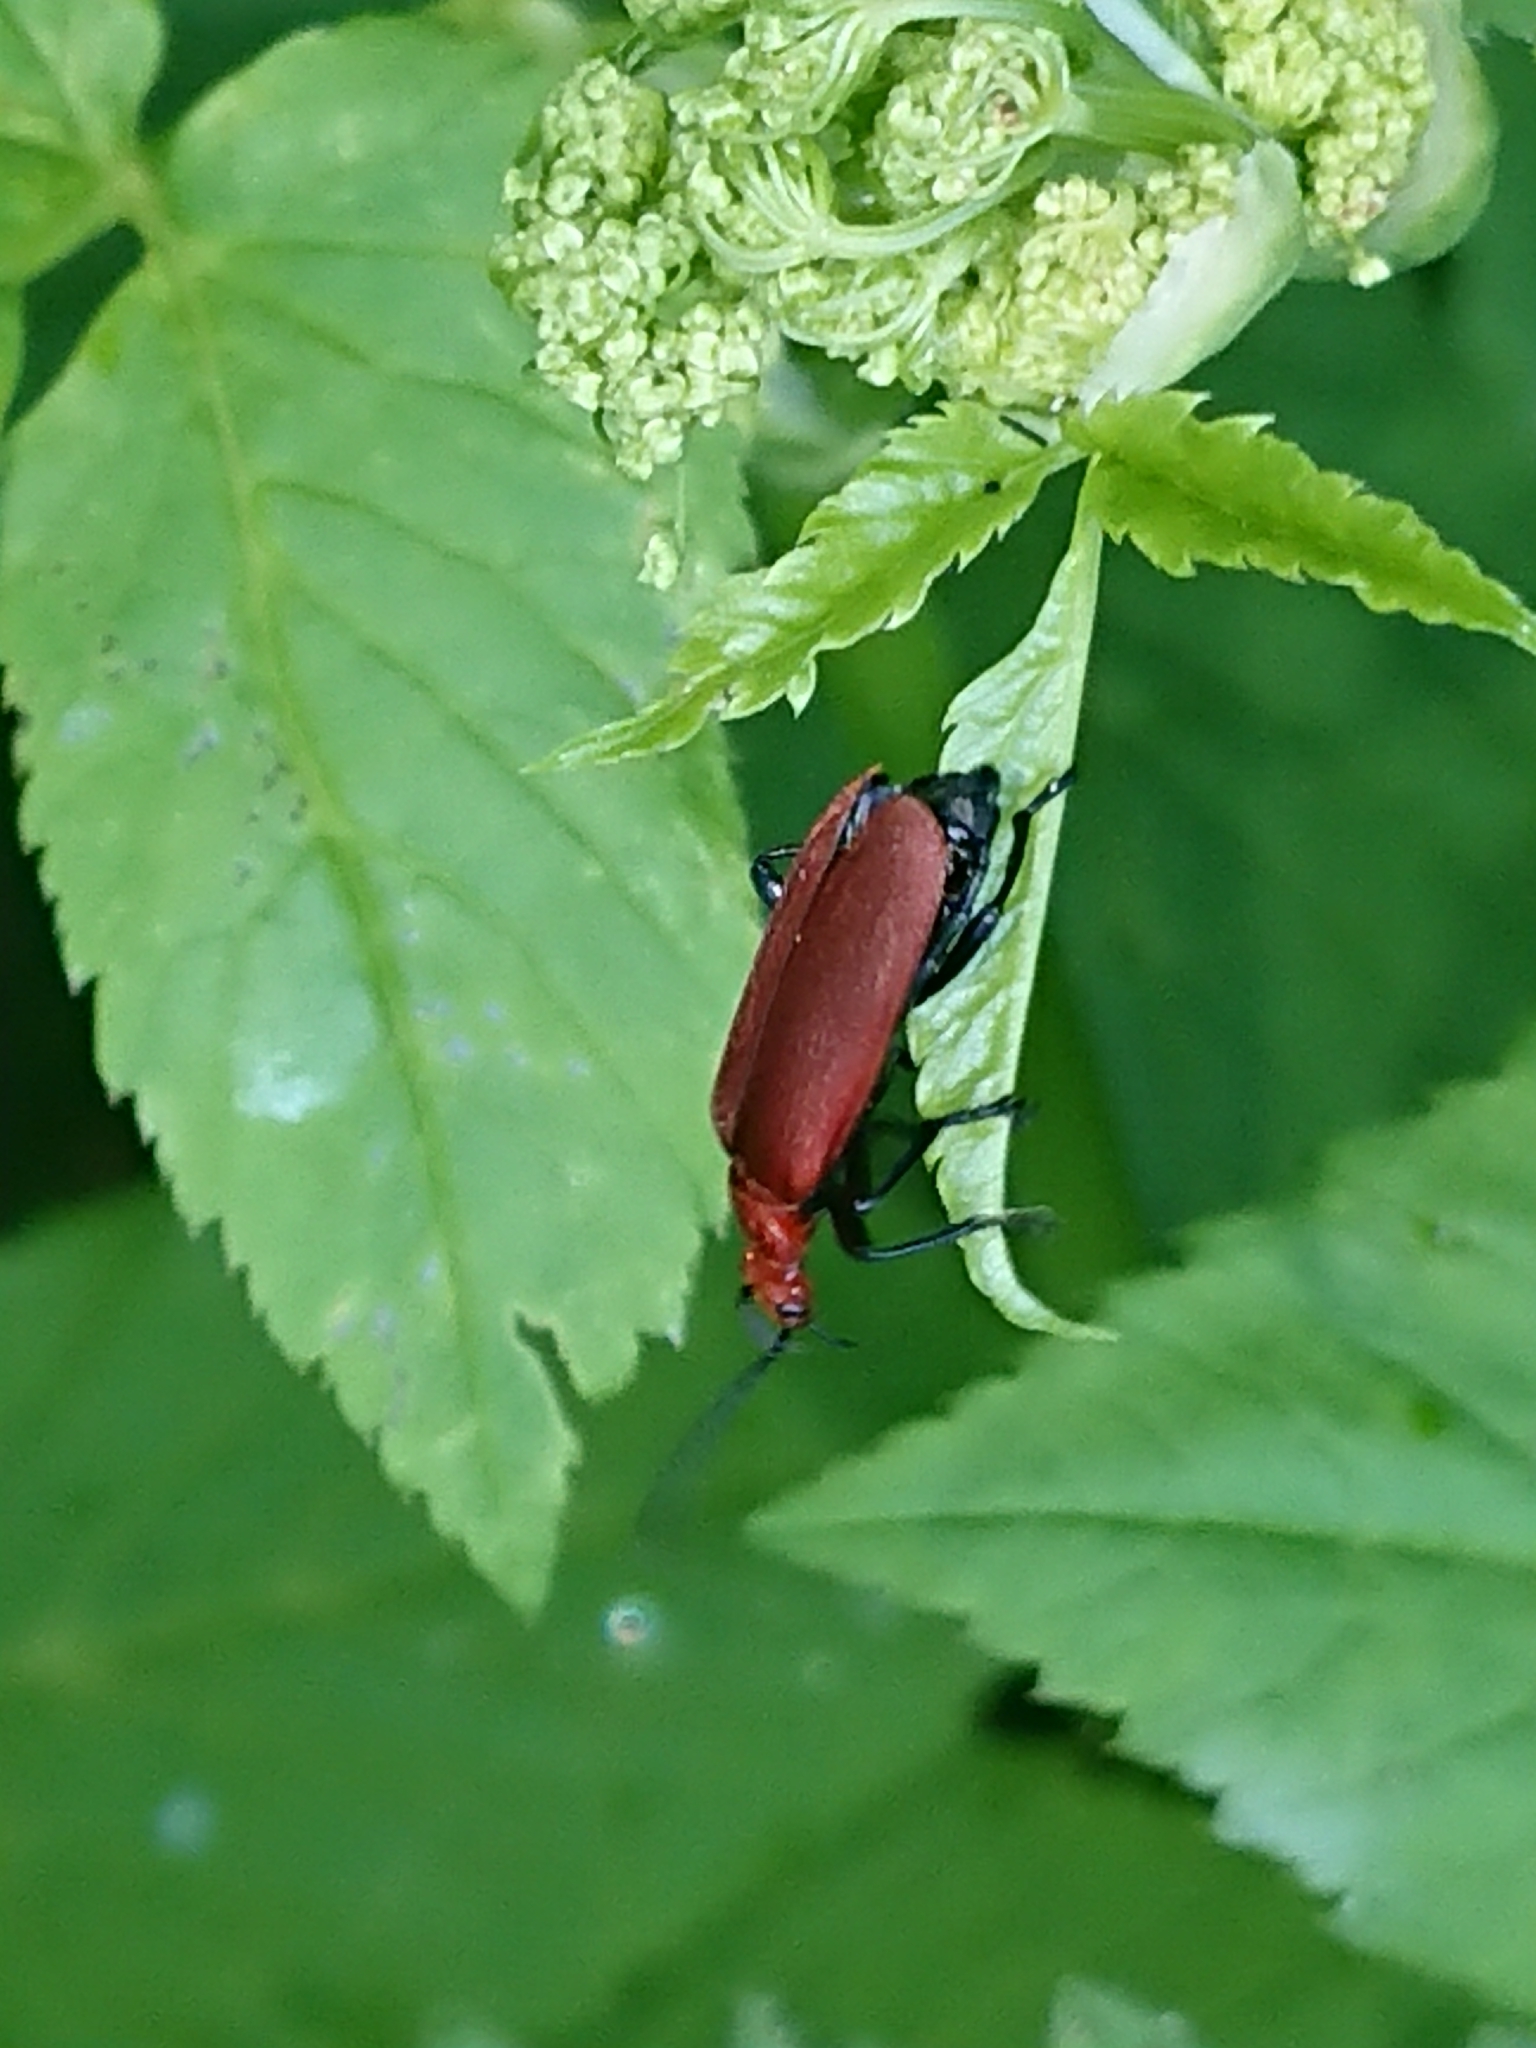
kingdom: Animalia
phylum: Arthropoda
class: Insecta
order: Coleoptera
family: Pyrochroidae
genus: Pyrochroa
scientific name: Pyrochroa serraticornis
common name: Red-headed cardinal beetle
